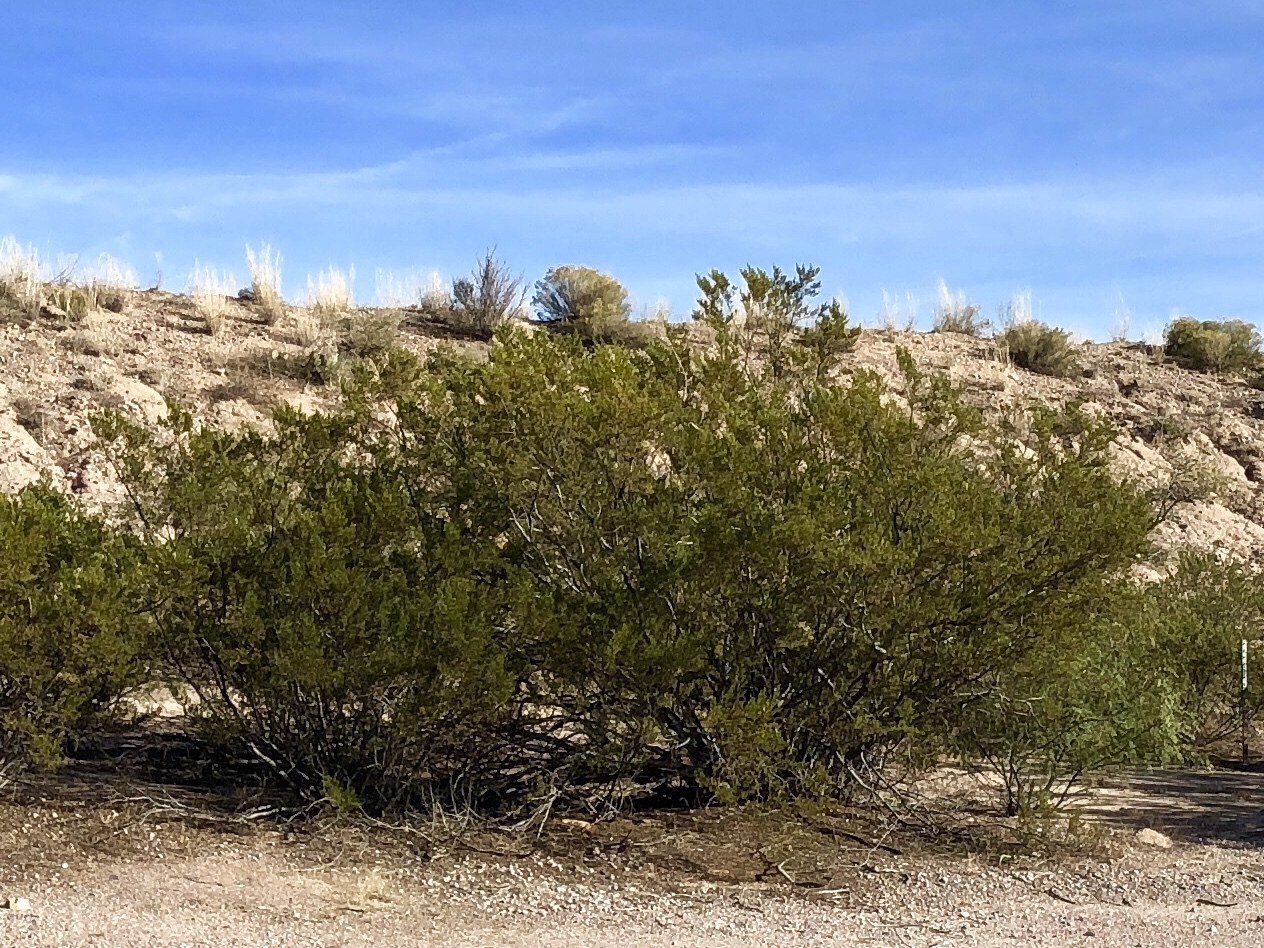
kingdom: Plantae
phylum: Tracheophyta
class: Magnoliopsida
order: Zygophyllales
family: Zygophyllaceae
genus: Larrea
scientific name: Larrea tridentata
